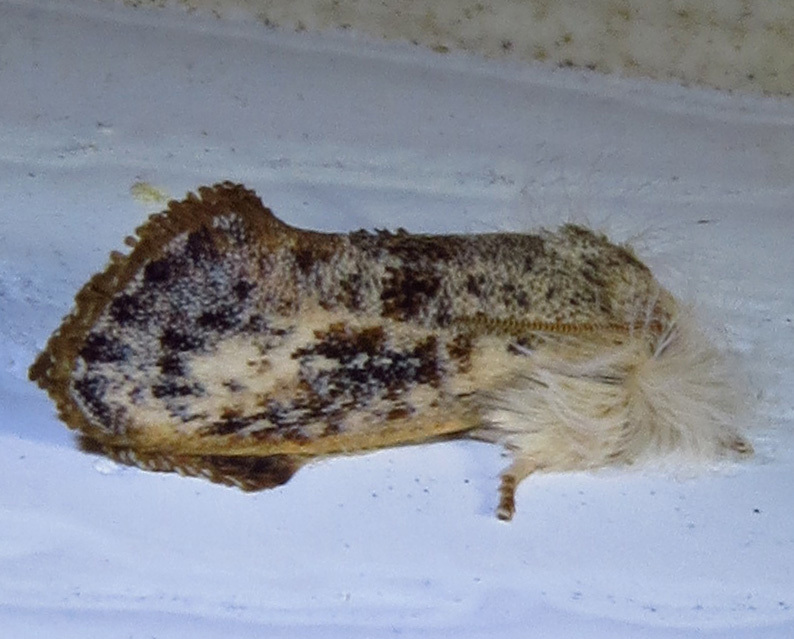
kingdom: Animalia
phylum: Arthropoda
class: Insecta
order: Lepidoptera
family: Tineidae
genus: Acrolophus
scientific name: Acrolophus mycetophagus
